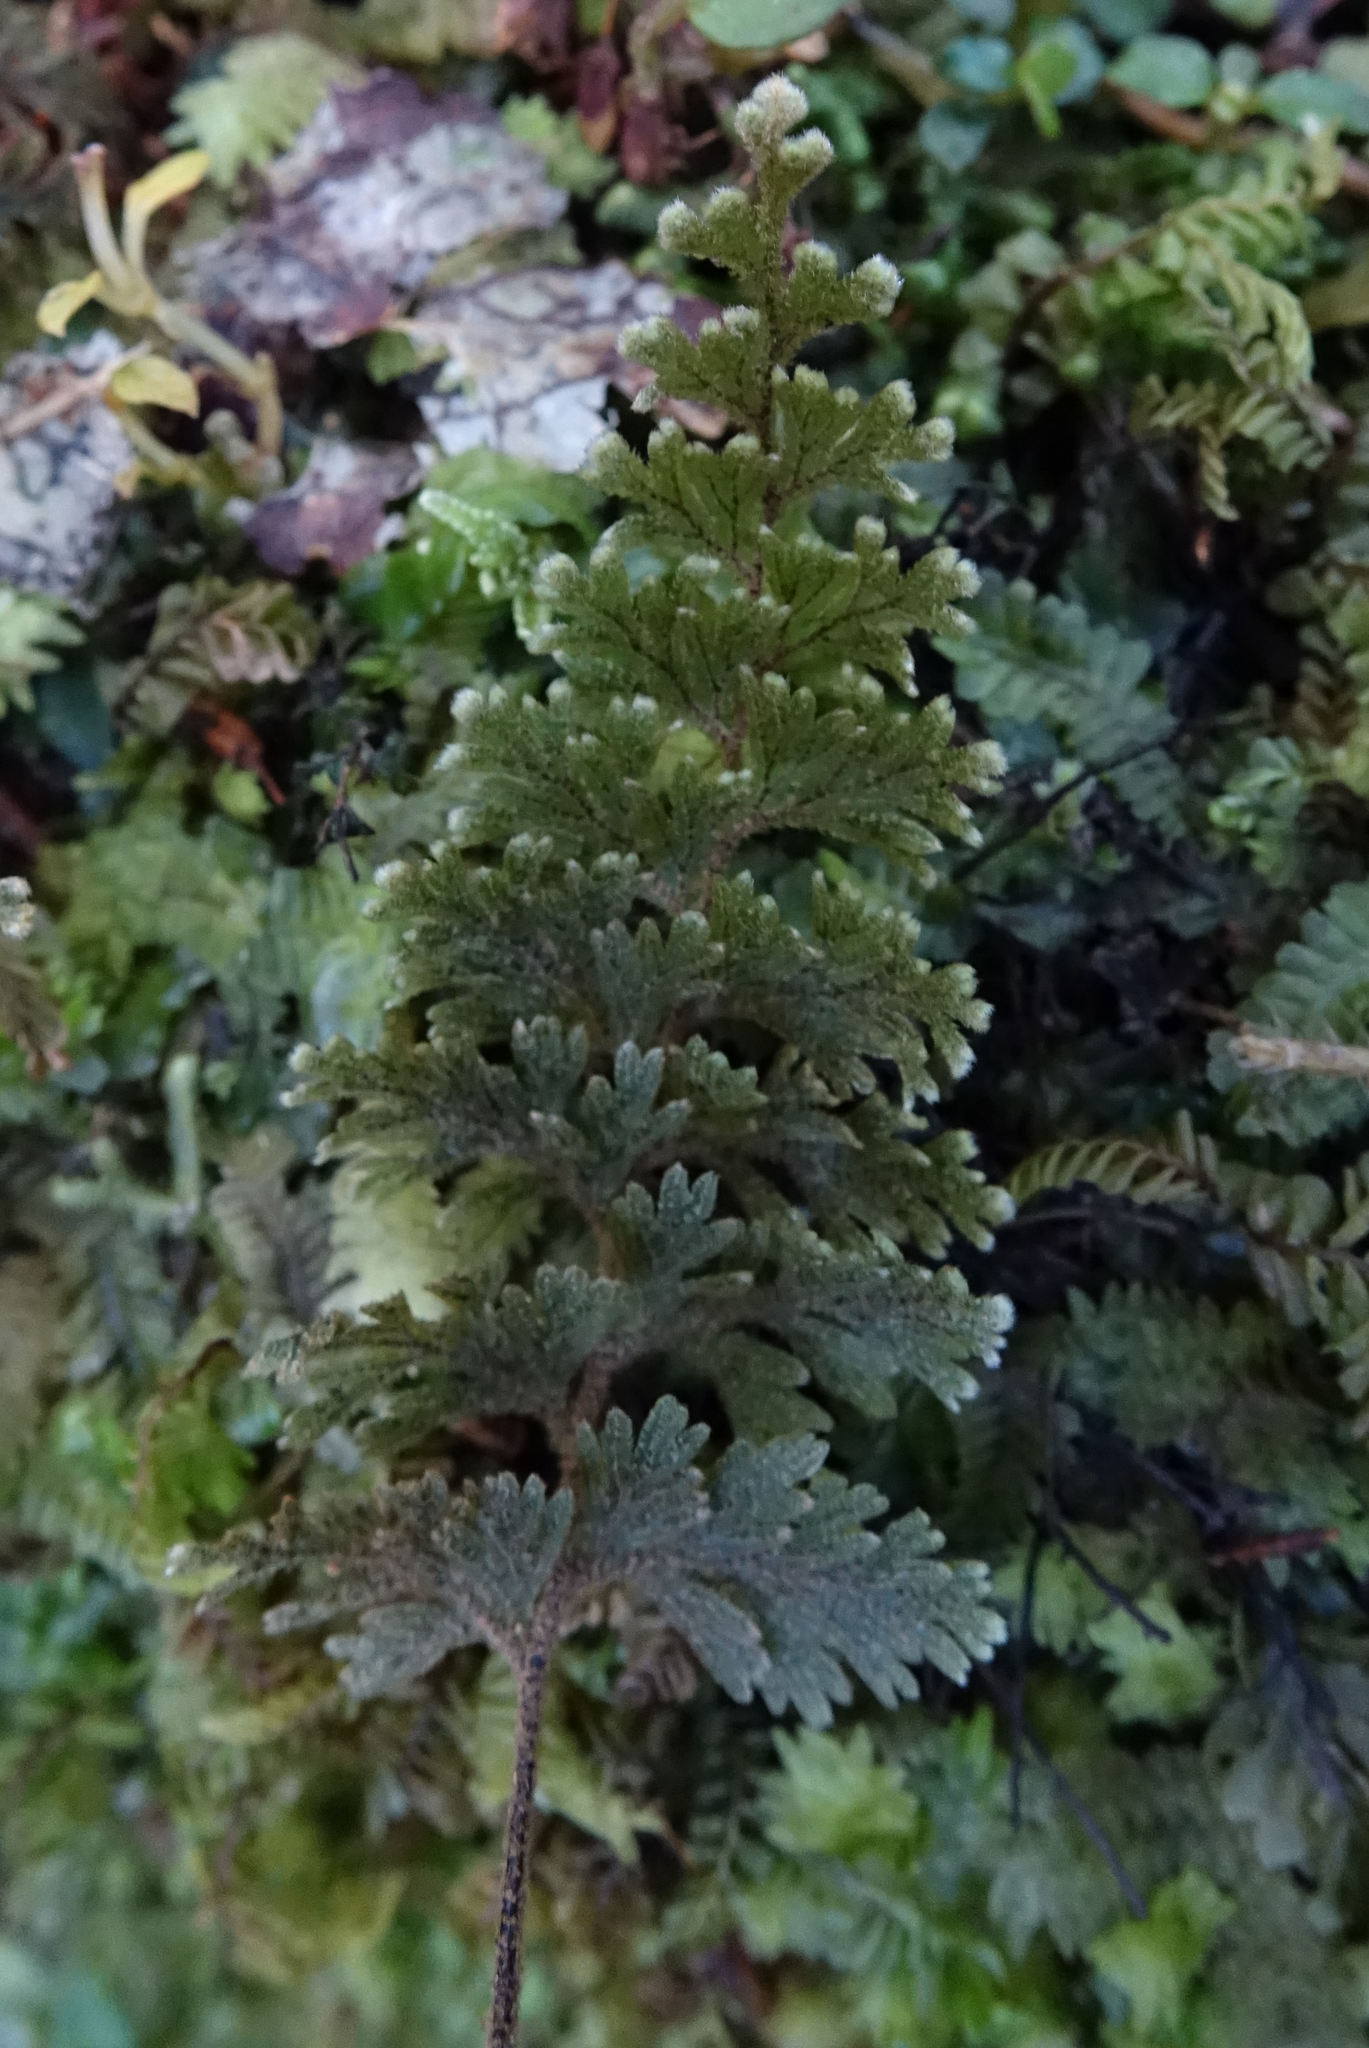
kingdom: Plantae
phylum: Tracheophyta
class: Polypodiopsida
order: Hymenophyllales
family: Hymenophyllaceae
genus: Hymenophyllum
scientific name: Hymenophyllum frankliniae
